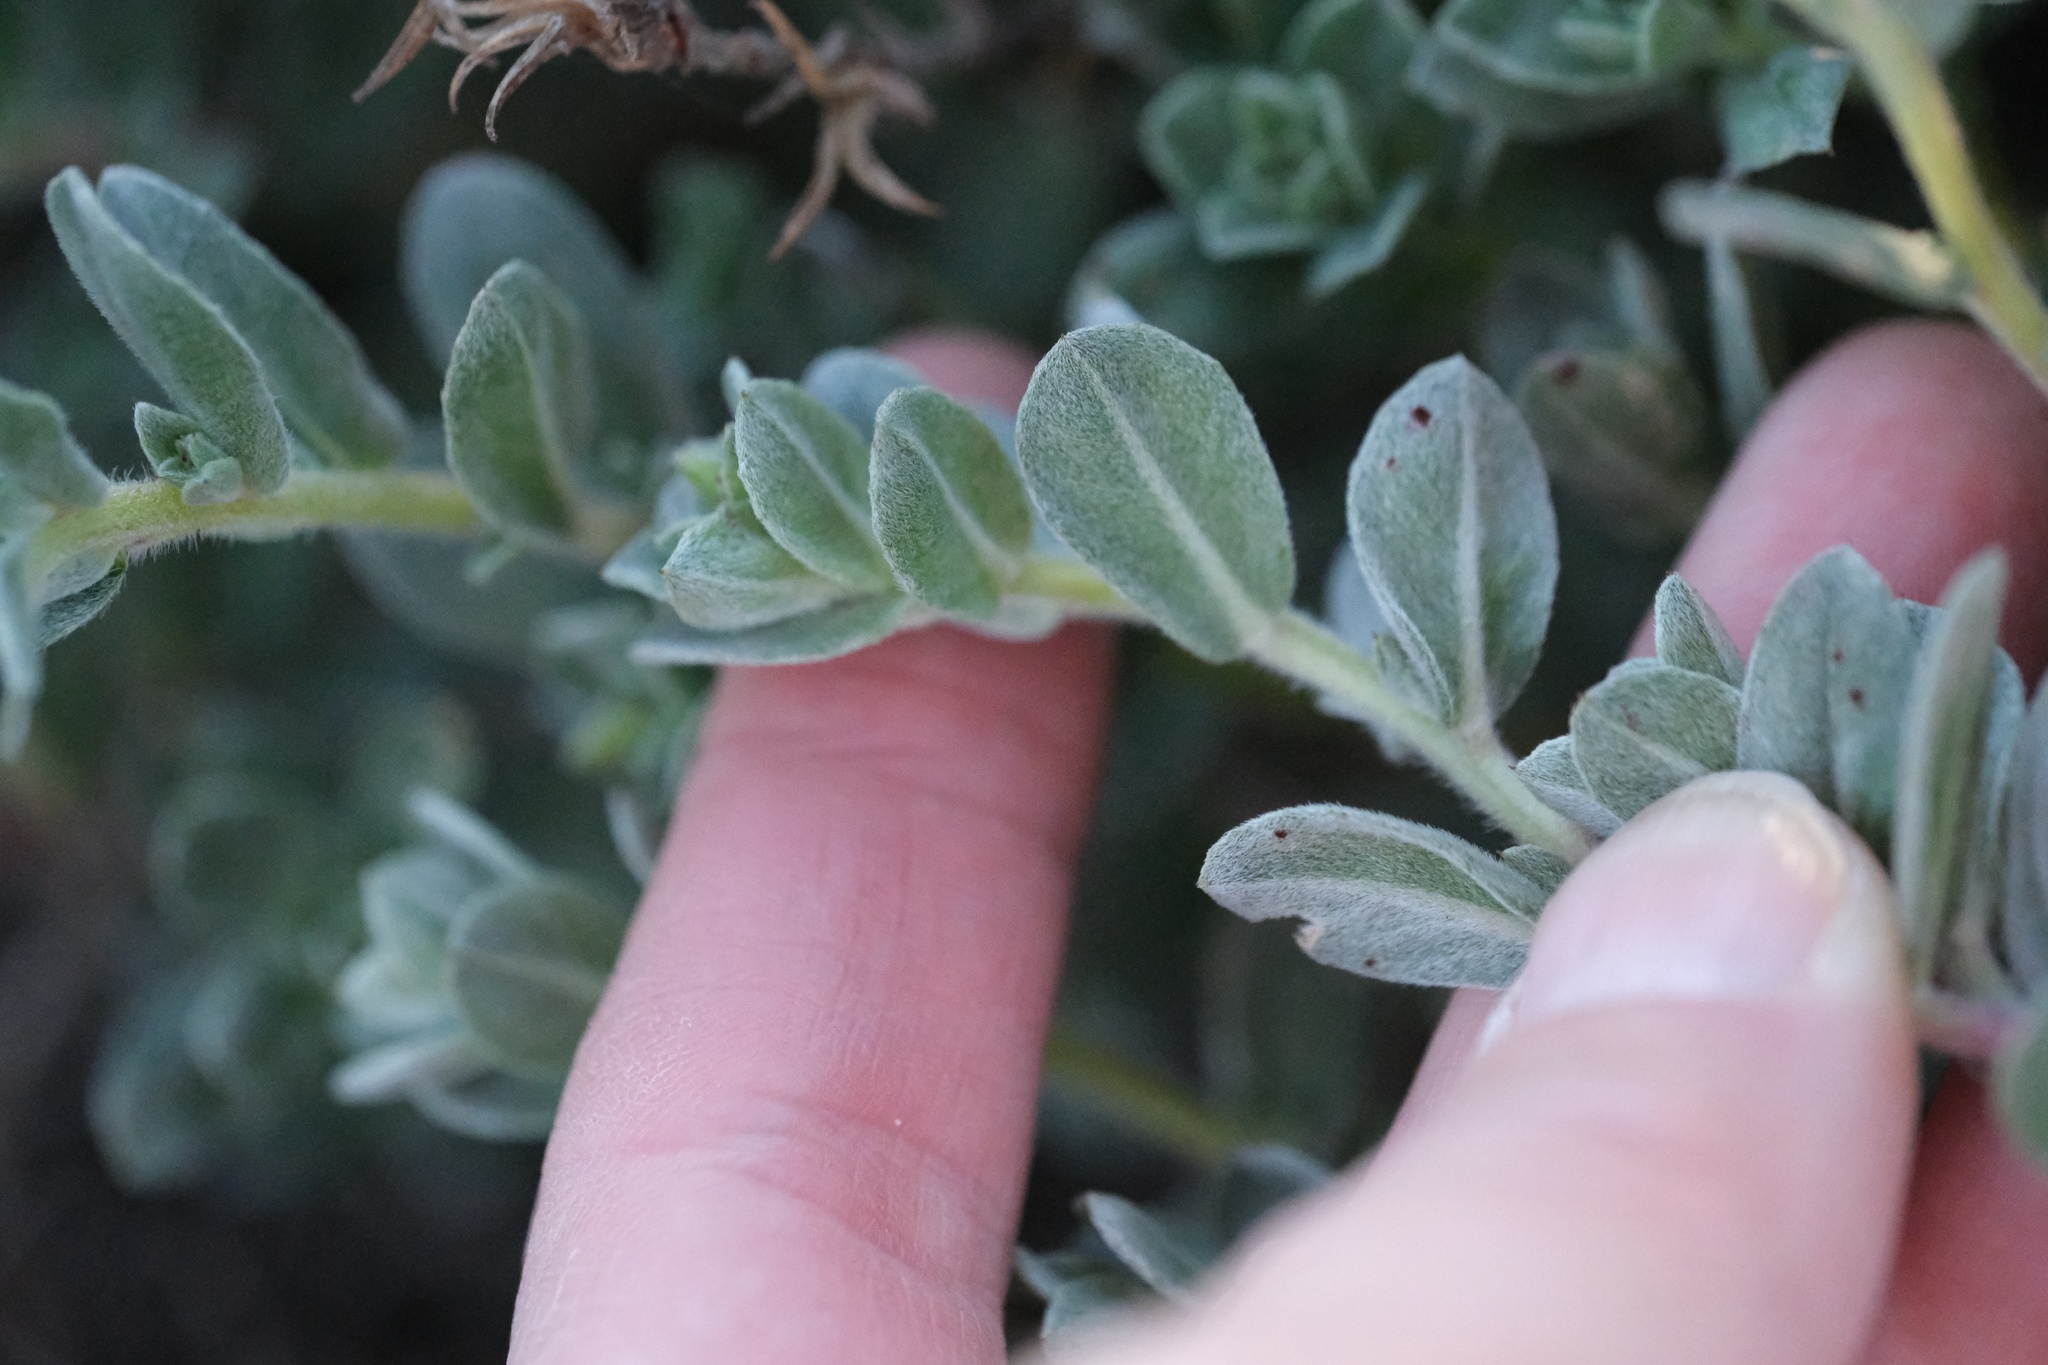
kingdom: Plantae
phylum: Tracheophyta
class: Magnoliopsida
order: Myrtales
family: Onagraceae
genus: Camissoniopsis
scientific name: Camissoniopsis cheiranthifolia
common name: Beach suncup
